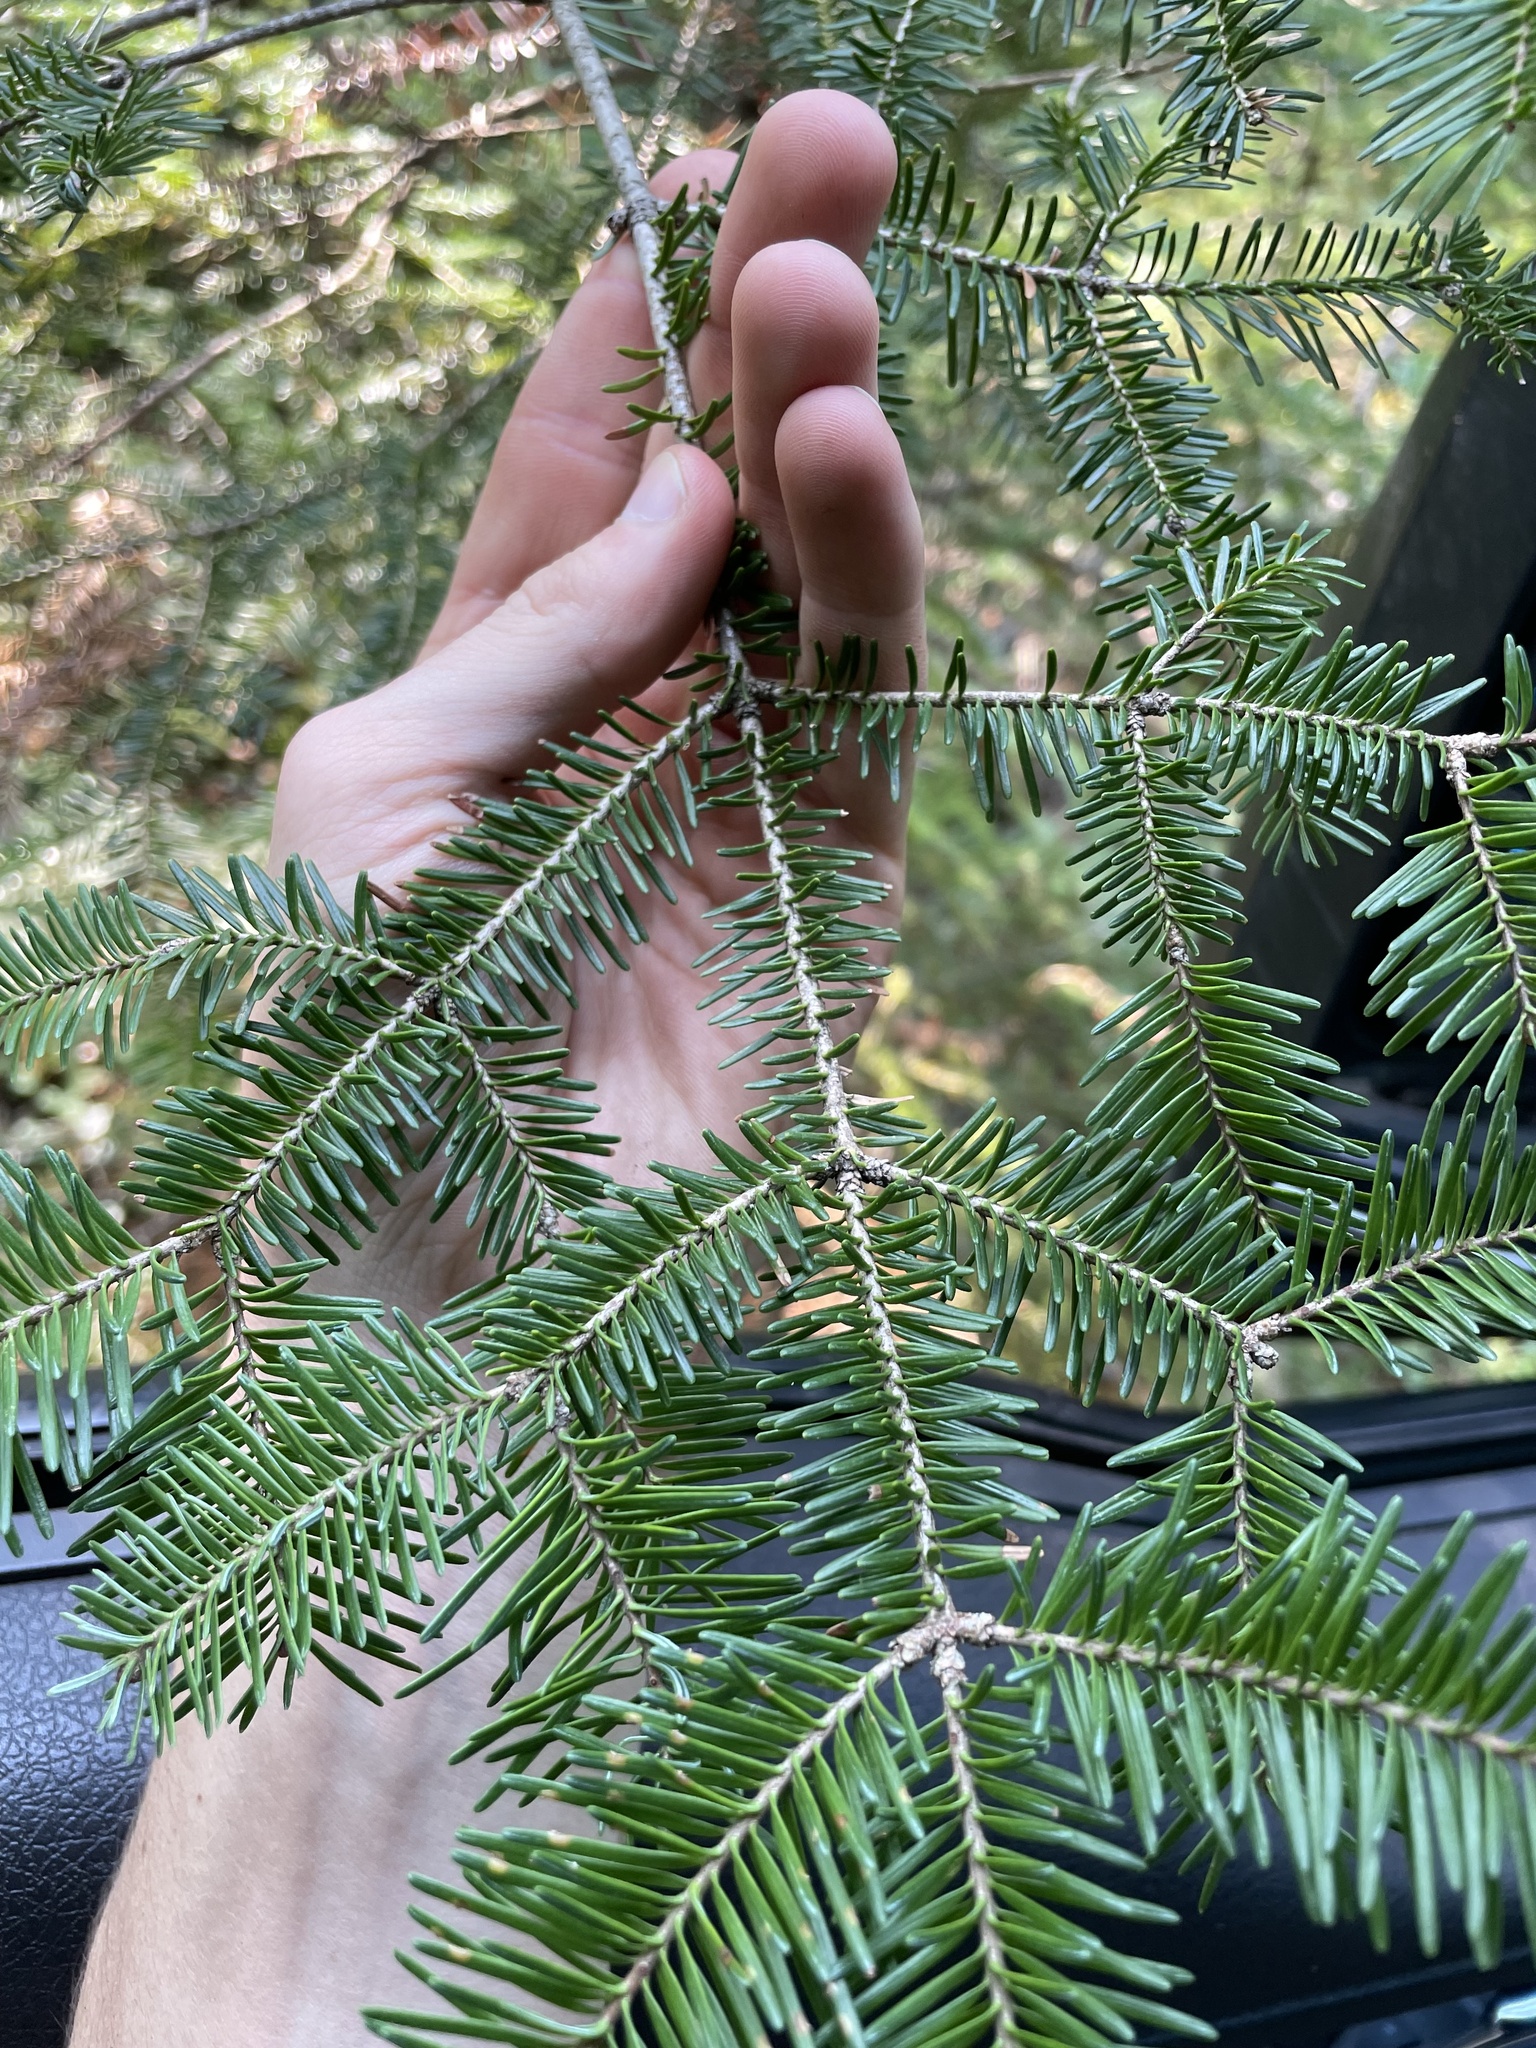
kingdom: Plantae
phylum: Tracheophyta
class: Pinopsida
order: Pinales
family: Pinaceae
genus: Abies
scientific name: Abies balsamea
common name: Balsam fir
